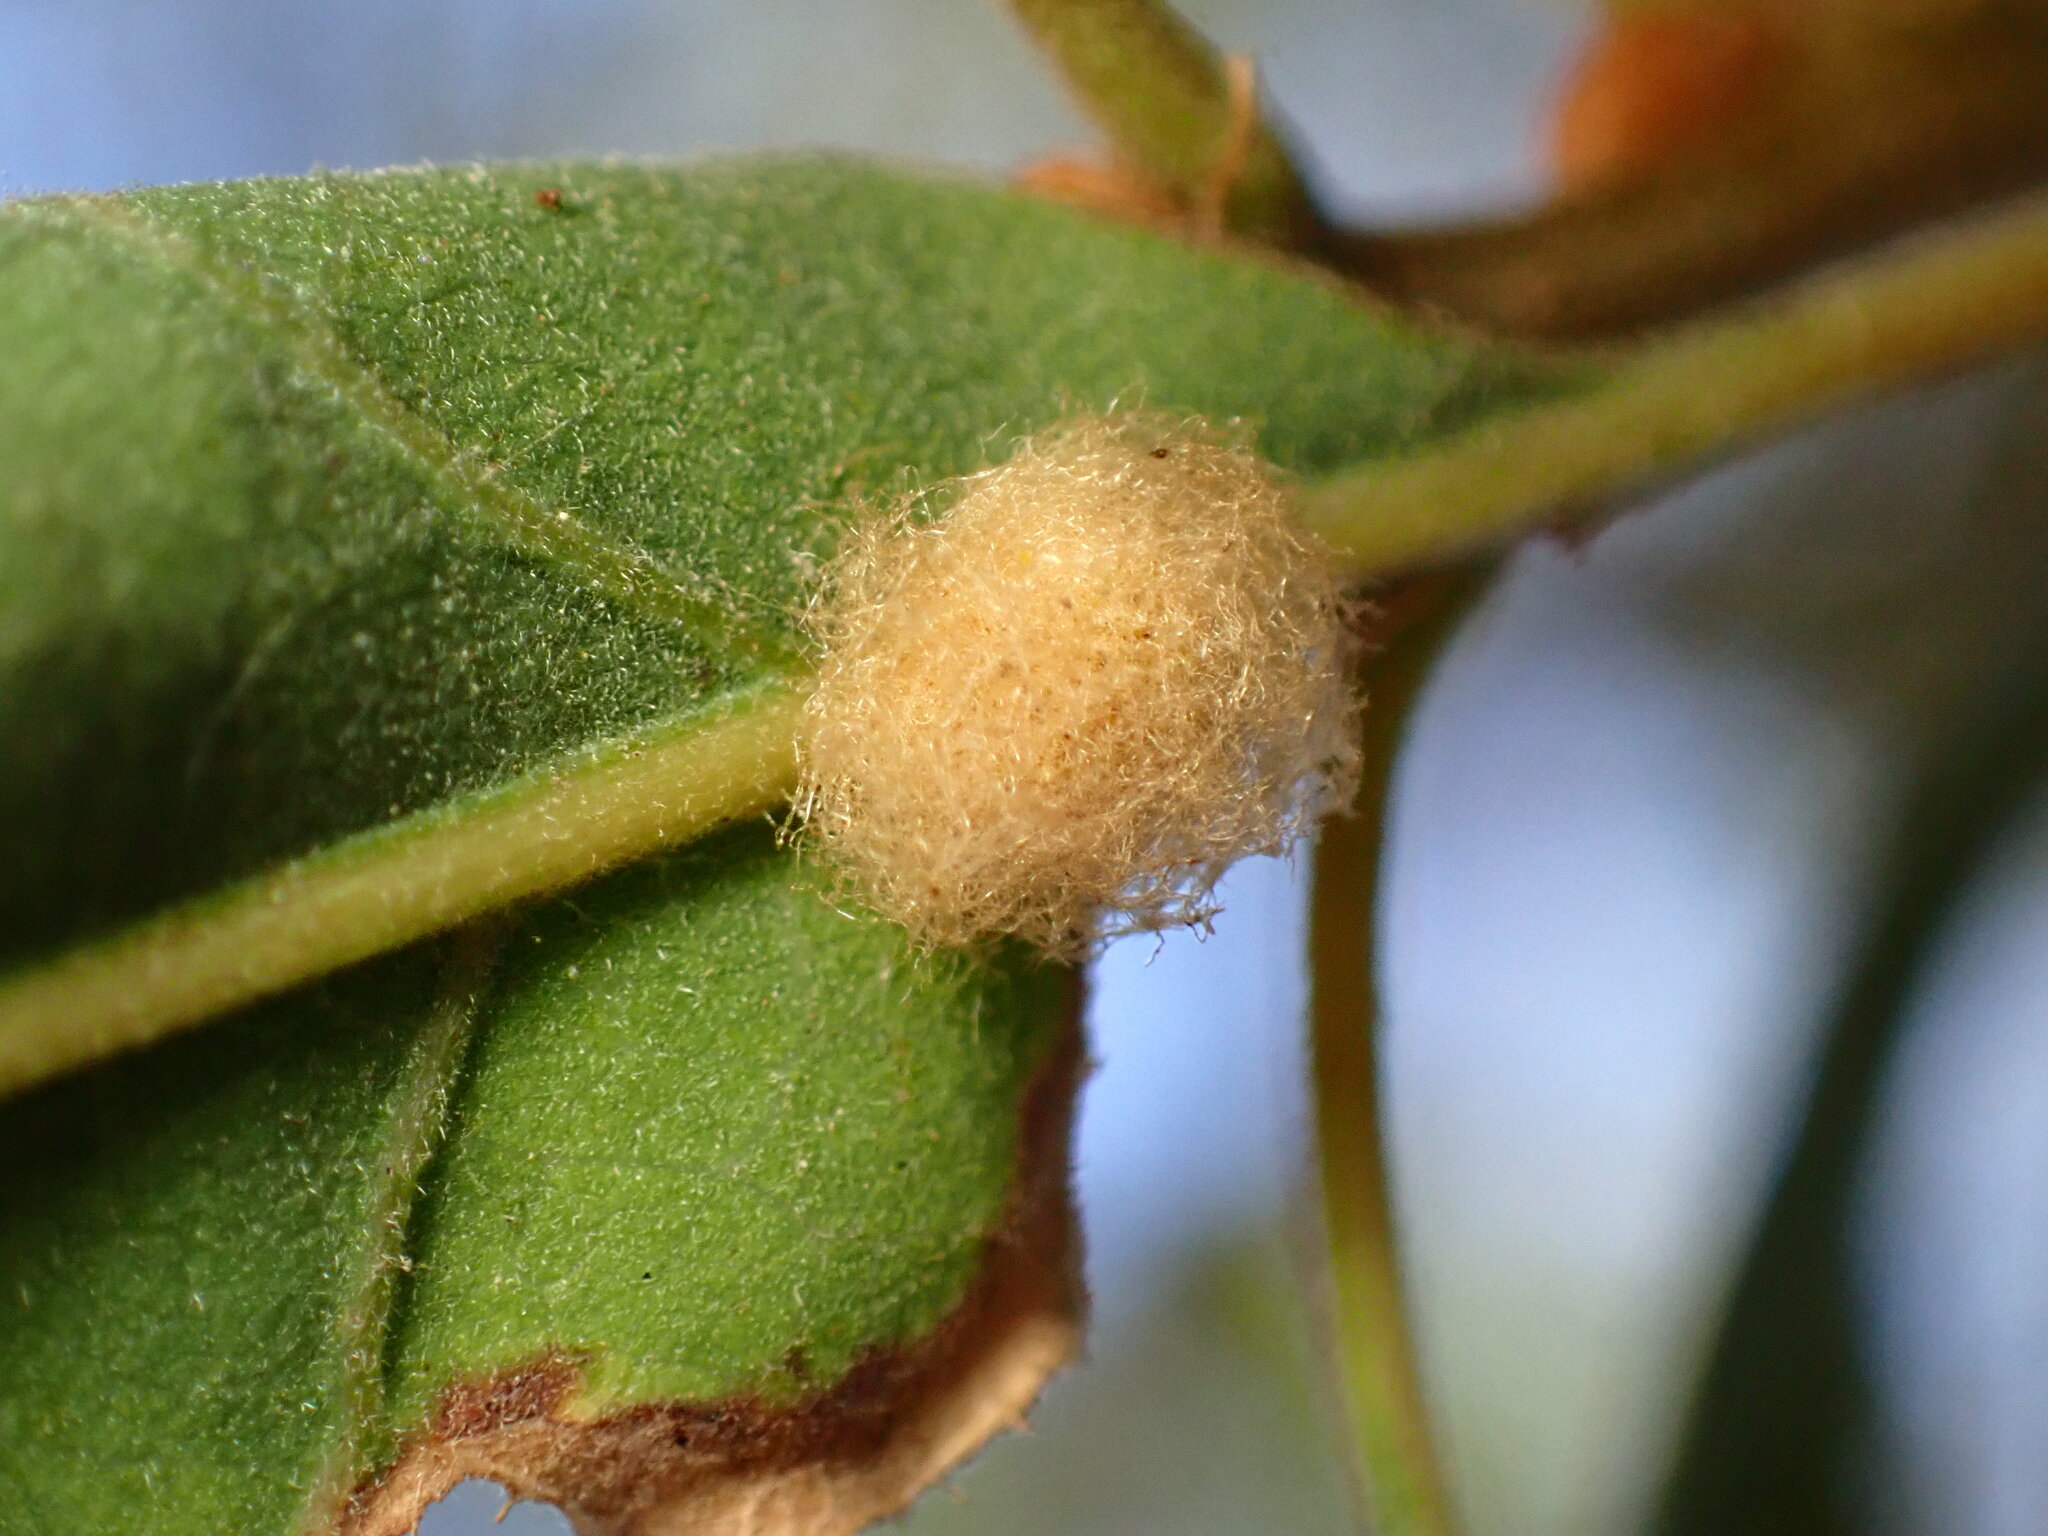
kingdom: Animalia
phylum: Arthropoda
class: Insecta
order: Hymenoptera
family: Cynipidae
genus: Andricus
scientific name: Andricus Druon fullawayi
